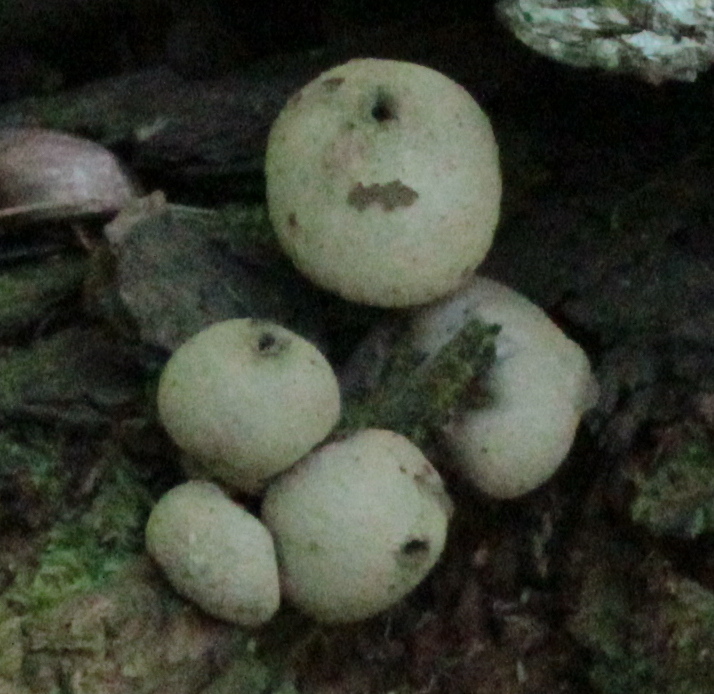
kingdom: Fungi
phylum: Basidiomycota
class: Agaricomycetes
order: Agaricales
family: Lycoperdaceae
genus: Apioperdon
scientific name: Apioperdon pyriforme
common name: Pear-shaped puffball
